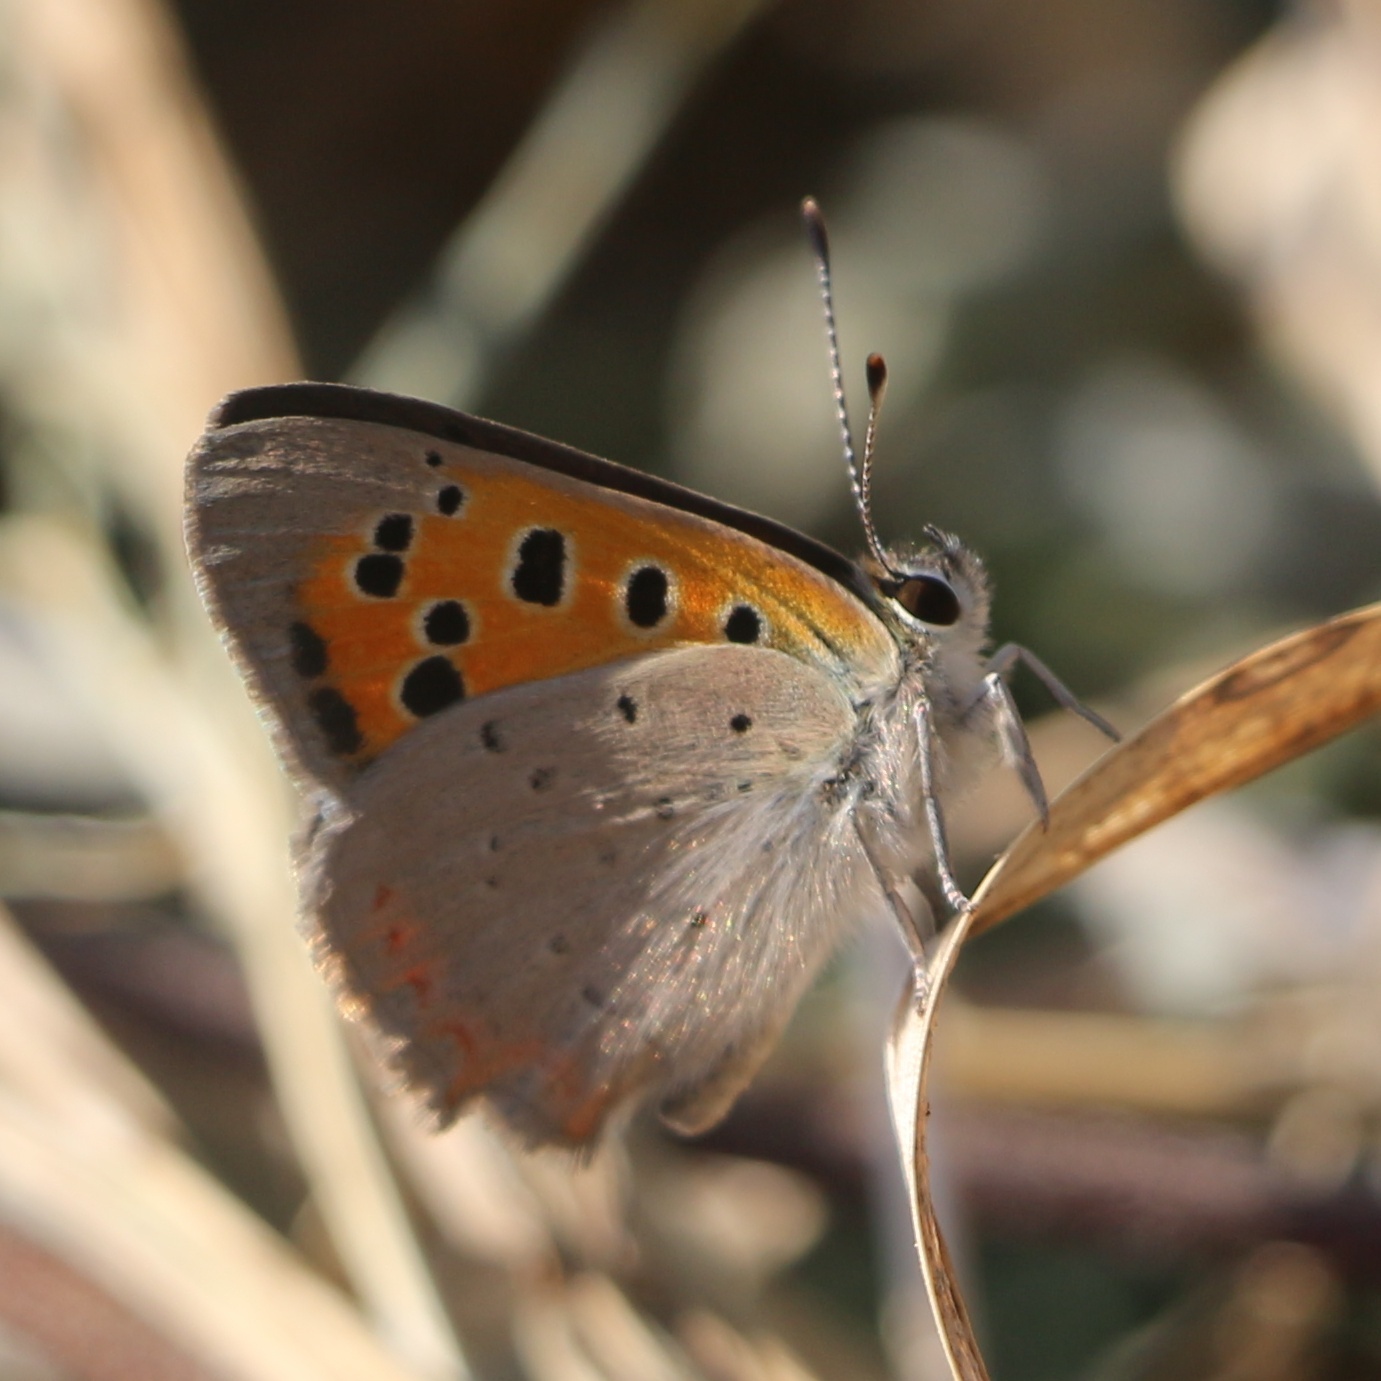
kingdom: Animalia
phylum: Arthropoda
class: Insecta
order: Lepidoptera
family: Lycaenidae
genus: Lycaena
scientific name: Lycaena phlaeas
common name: Small copper
